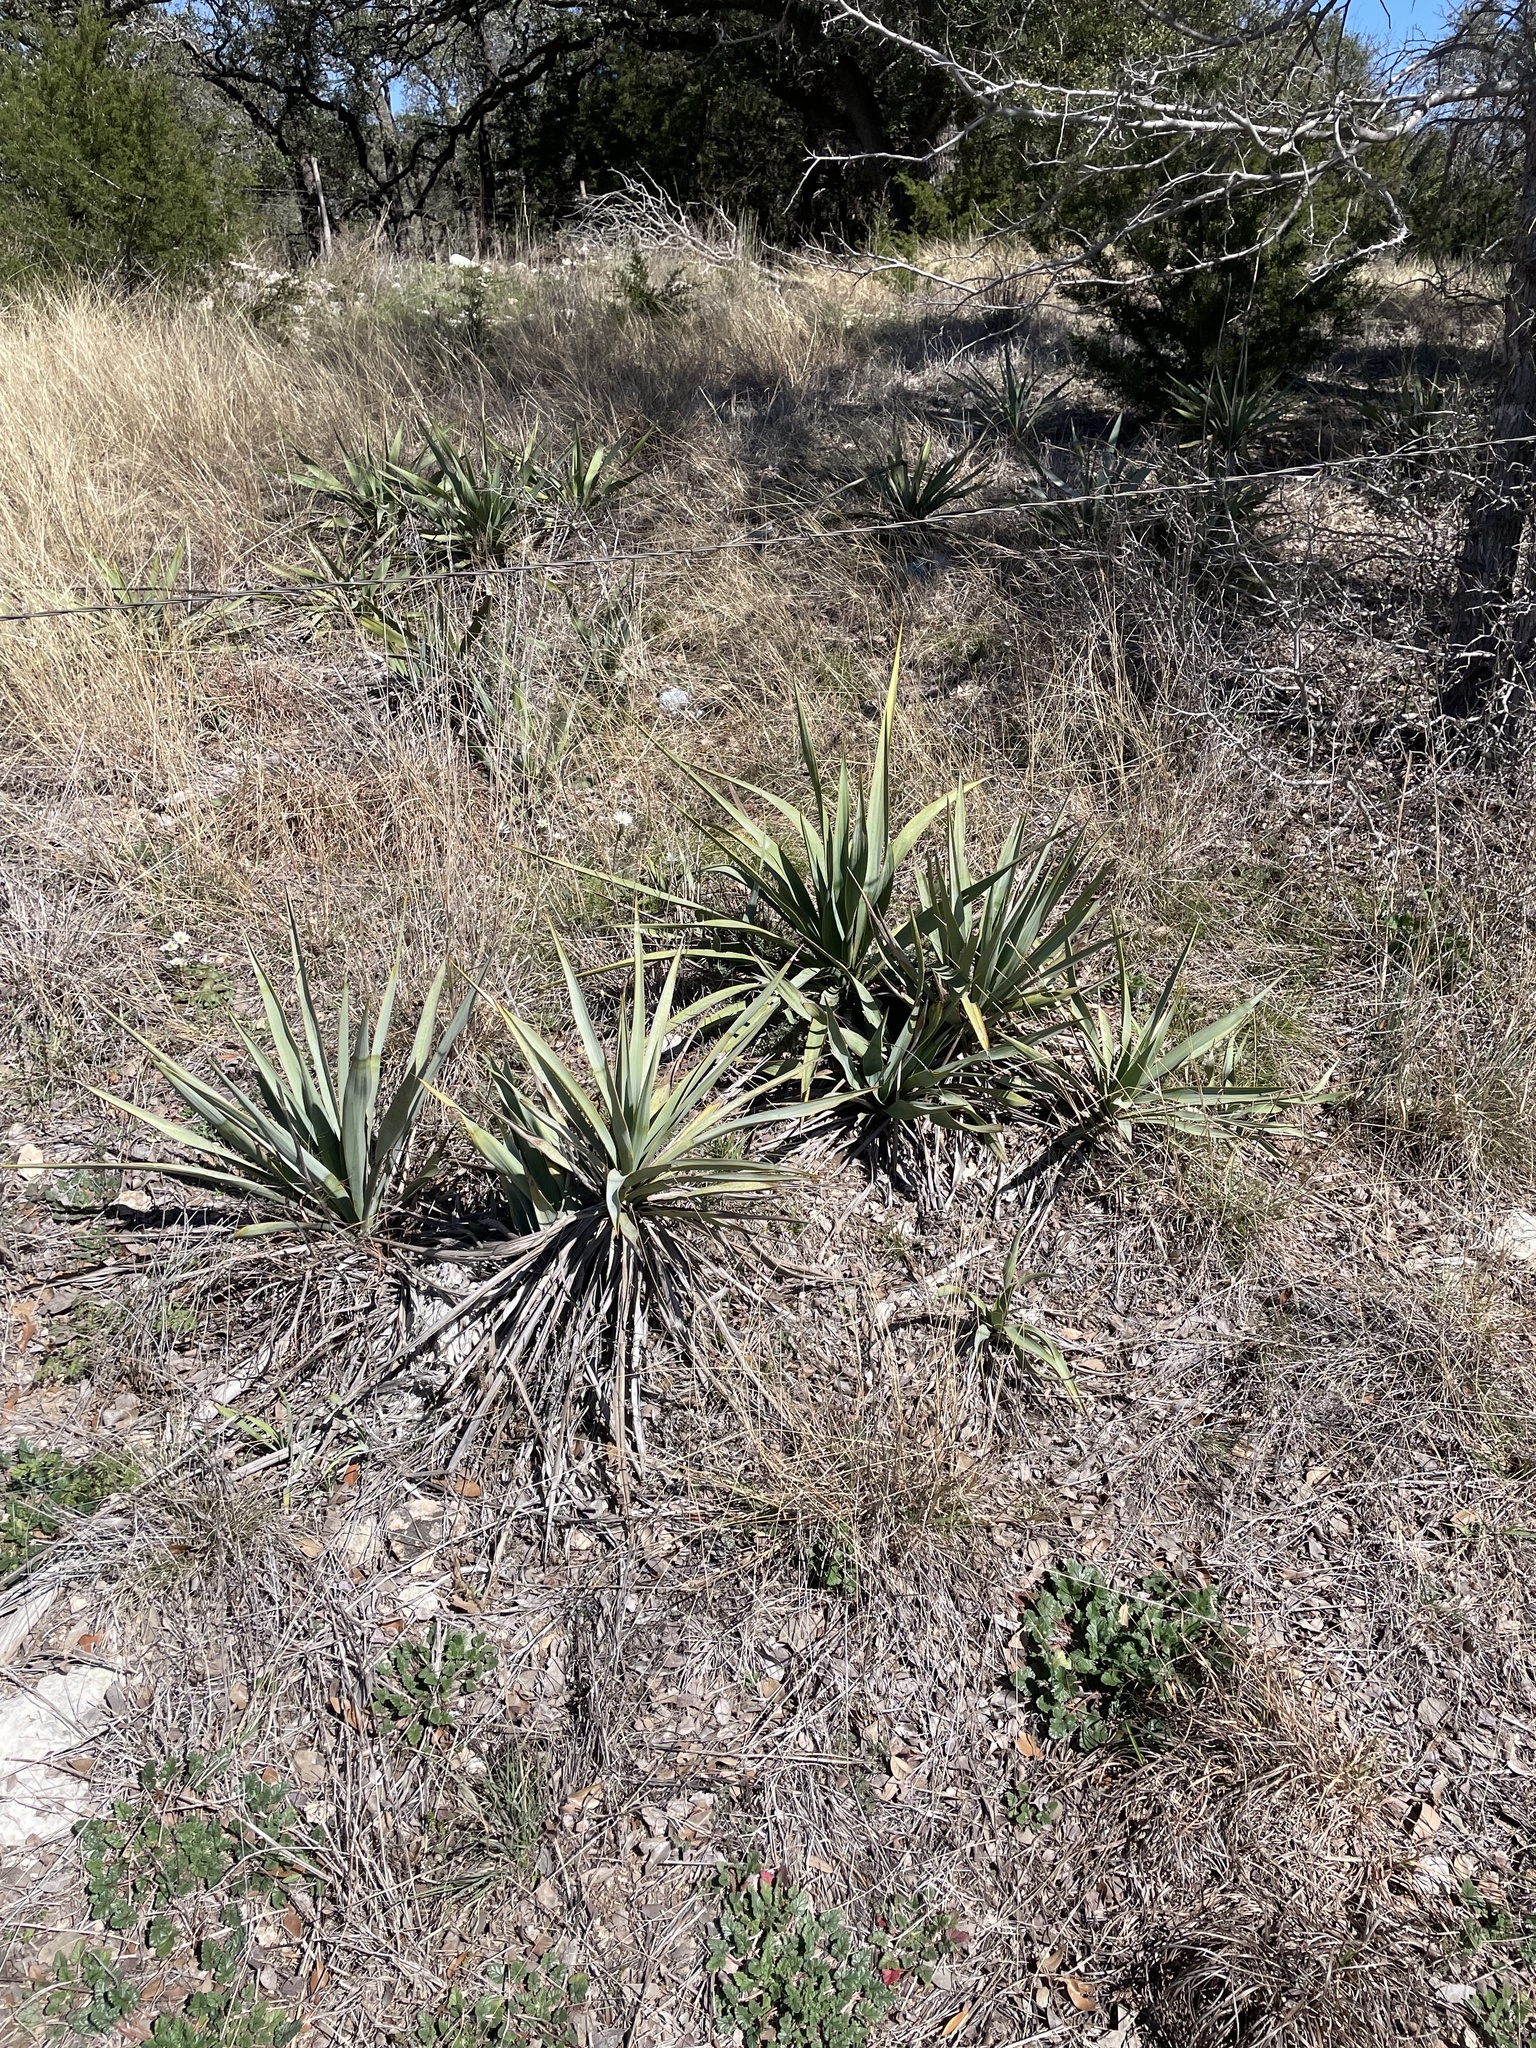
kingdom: Plantae
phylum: Tracheophyta
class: Liliopsida
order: Asparagales
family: Asparagaceae
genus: Yucca
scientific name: Yucca pallida
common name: Pale leaf yucca
